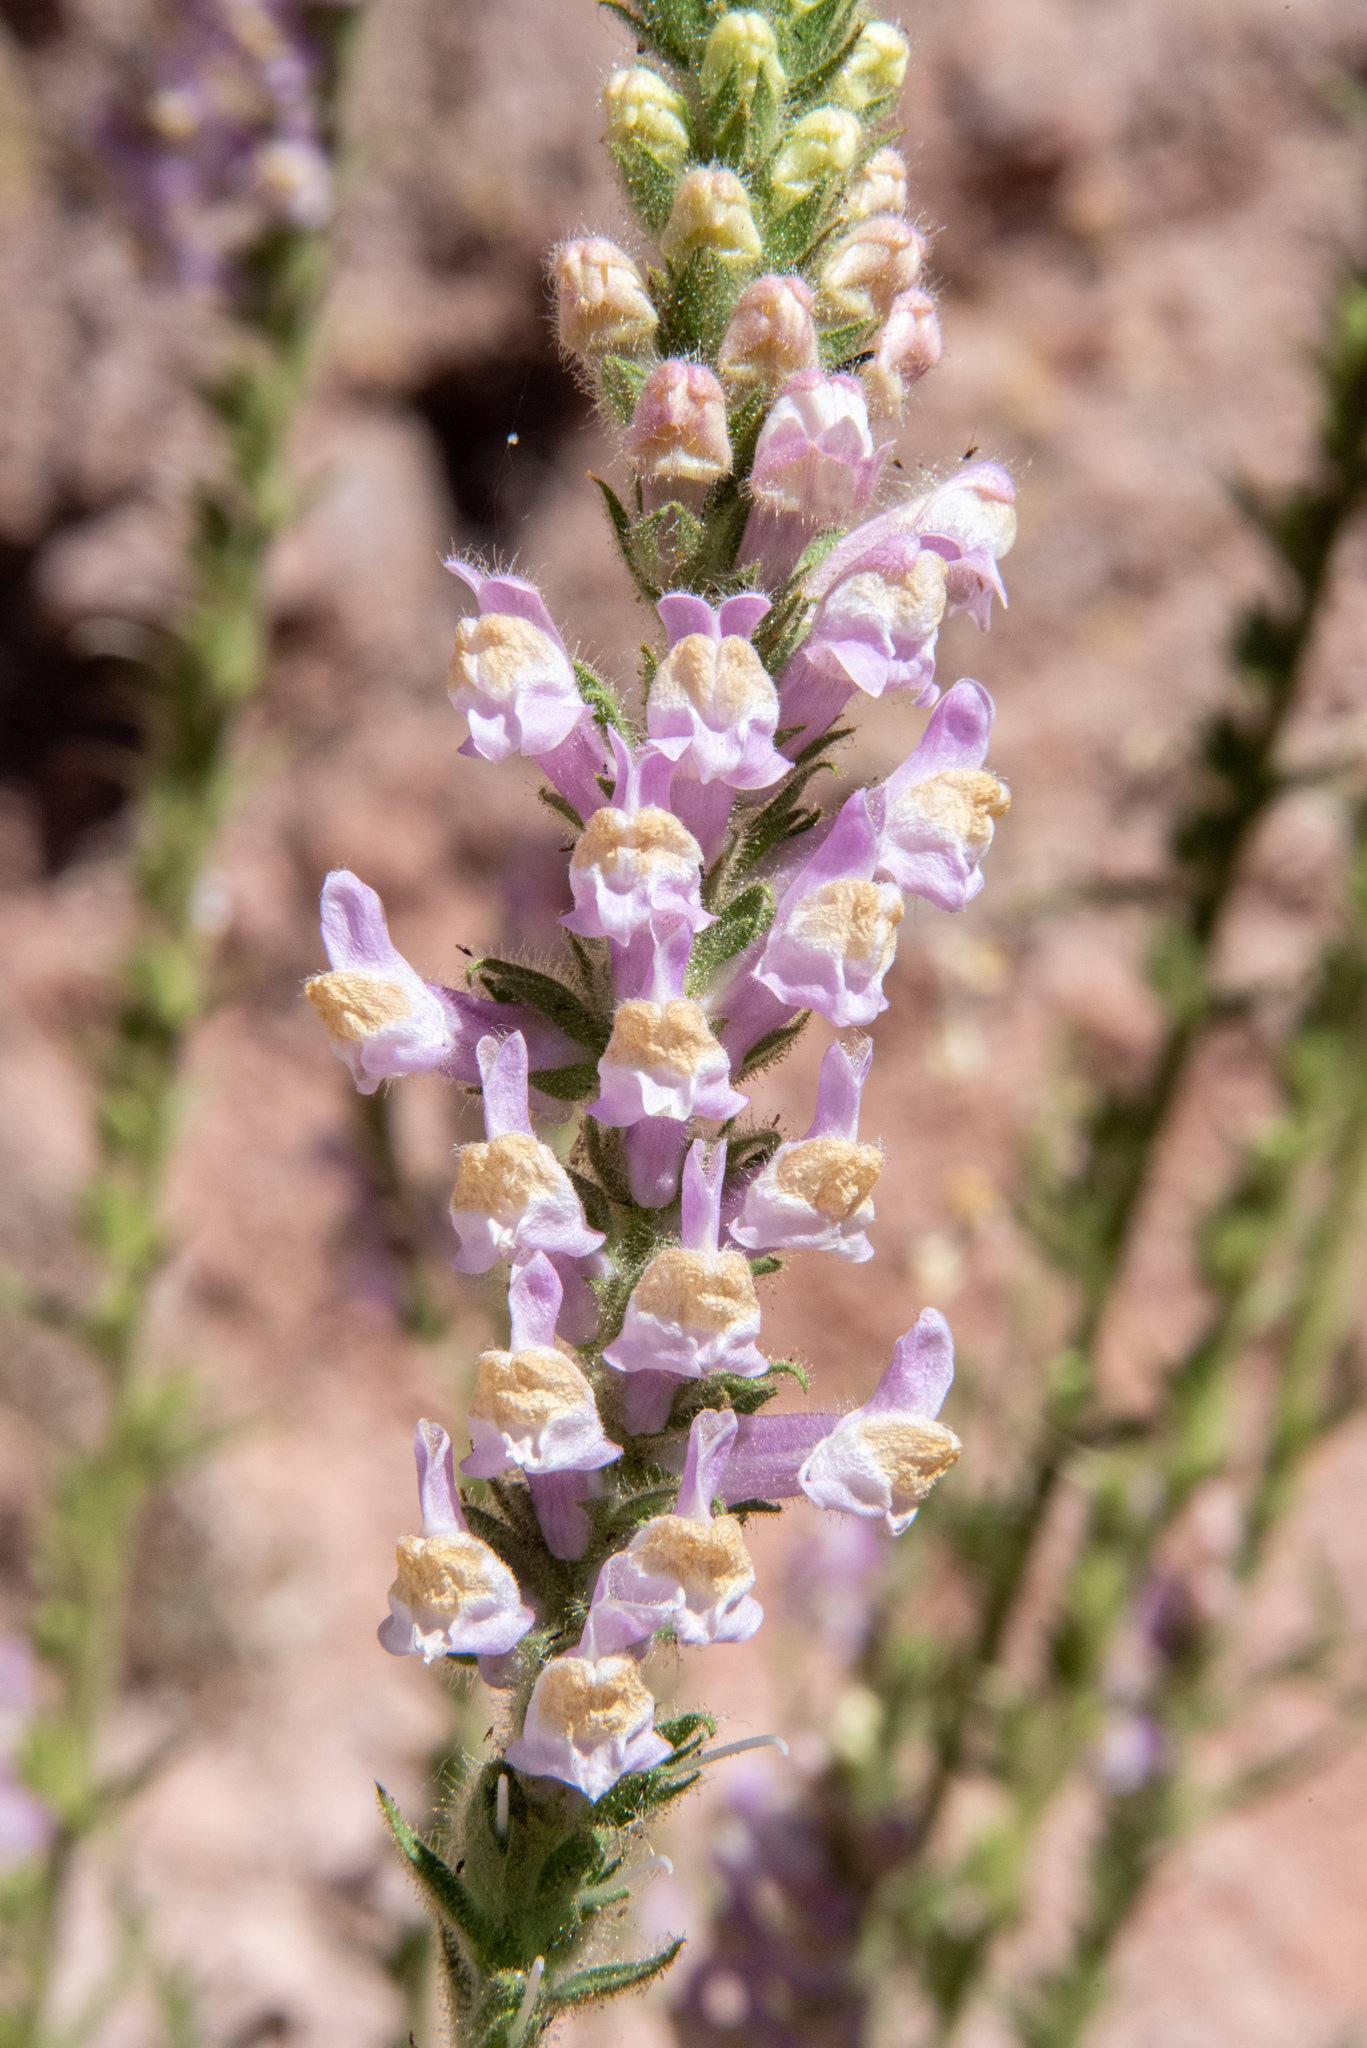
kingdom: Plantae
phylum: Tracheophyta
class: Magnoliopsida
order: Lamiales
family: Plantaginaceae
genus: Sairocarpus
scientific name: Sairocarpus multiflorus
